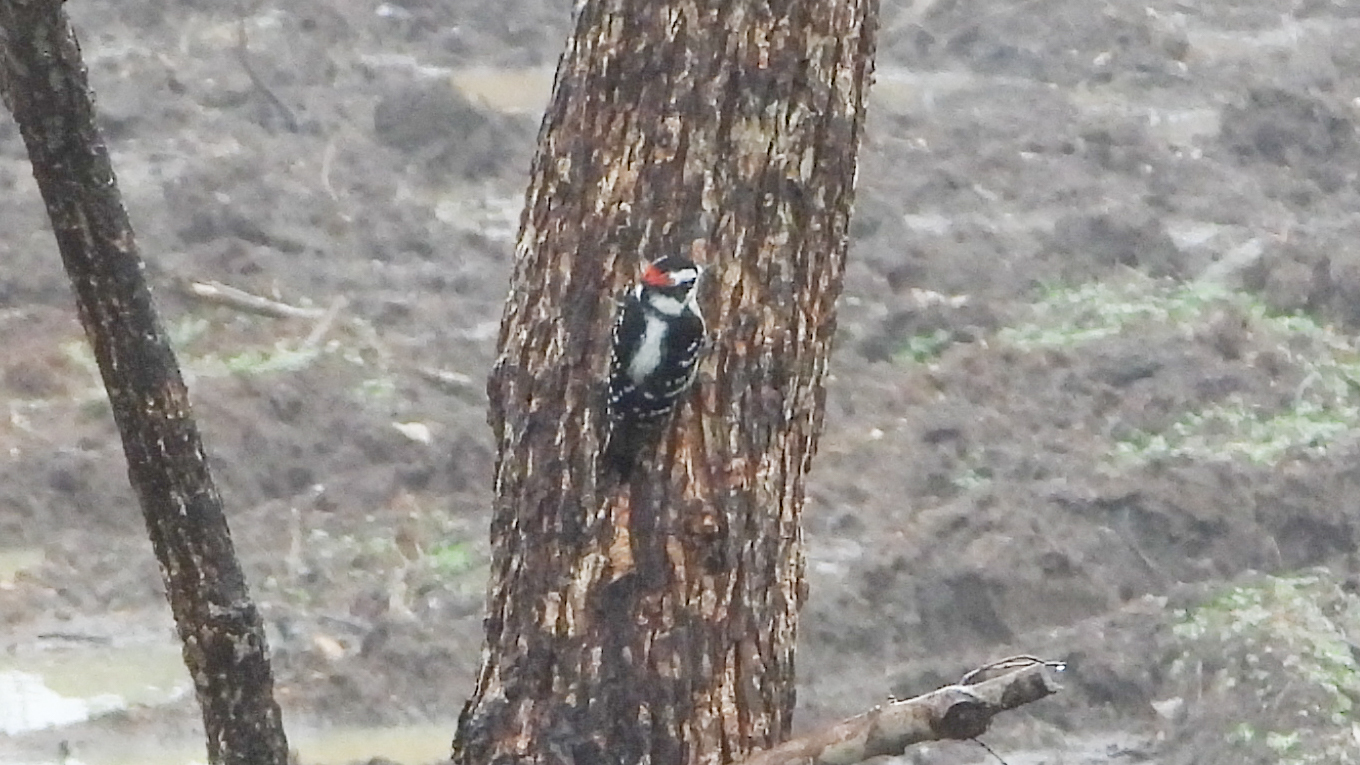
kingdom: Animalia
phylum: Chordata
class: Aves
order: Piciformes
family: Picidae
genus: Dryobates
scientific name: Dryobates pubescens
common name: Downy woodpecker
